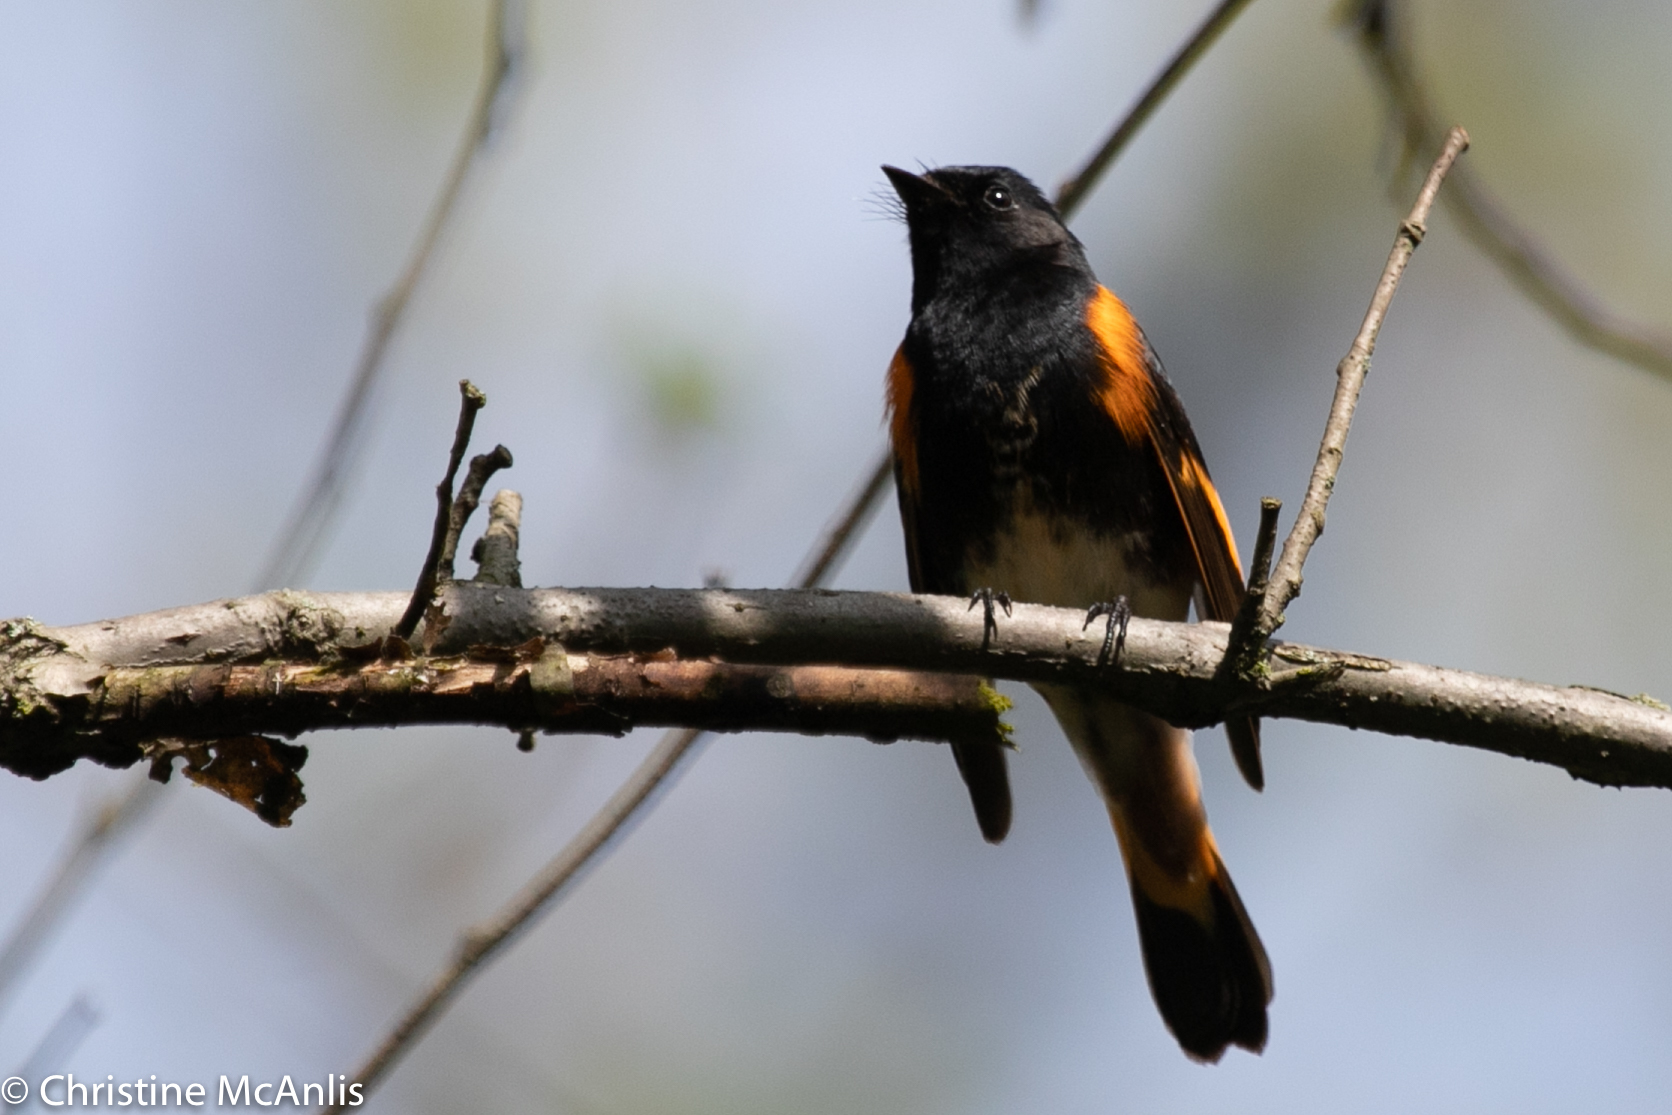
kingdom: Animalia
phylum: Chordata
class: Aves
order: Passeriformes
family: Parulidae
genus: Setophaga
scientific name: Setophaga ruticilla
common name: American redstart
